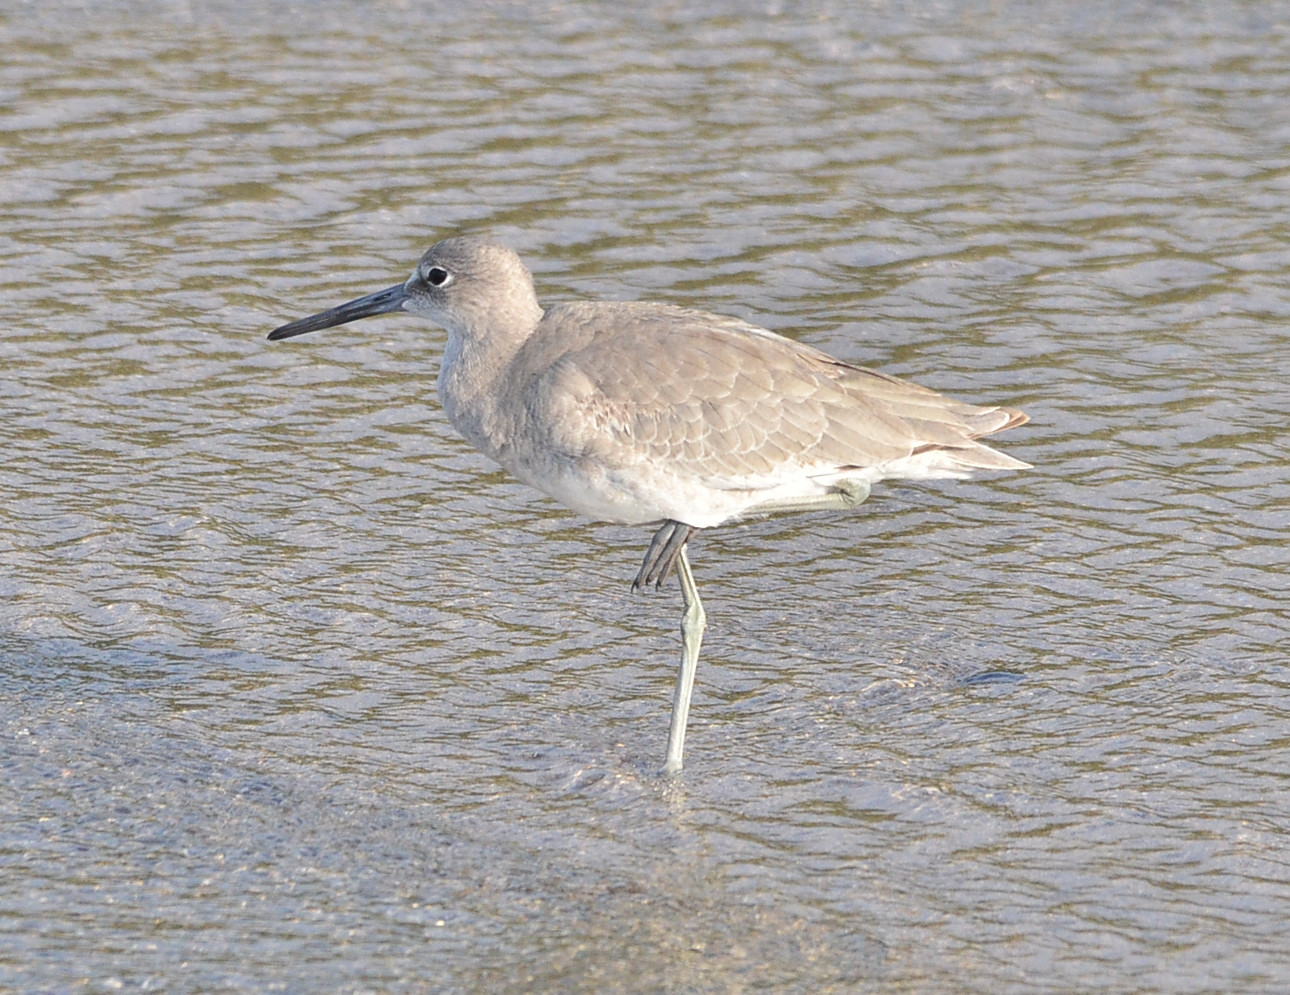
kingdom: Animalia
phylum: Chordata
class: Aves
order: Charadriiformes
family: Scolopacidae
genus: Tringa
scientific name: Tringa semipalmata
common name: Willet
